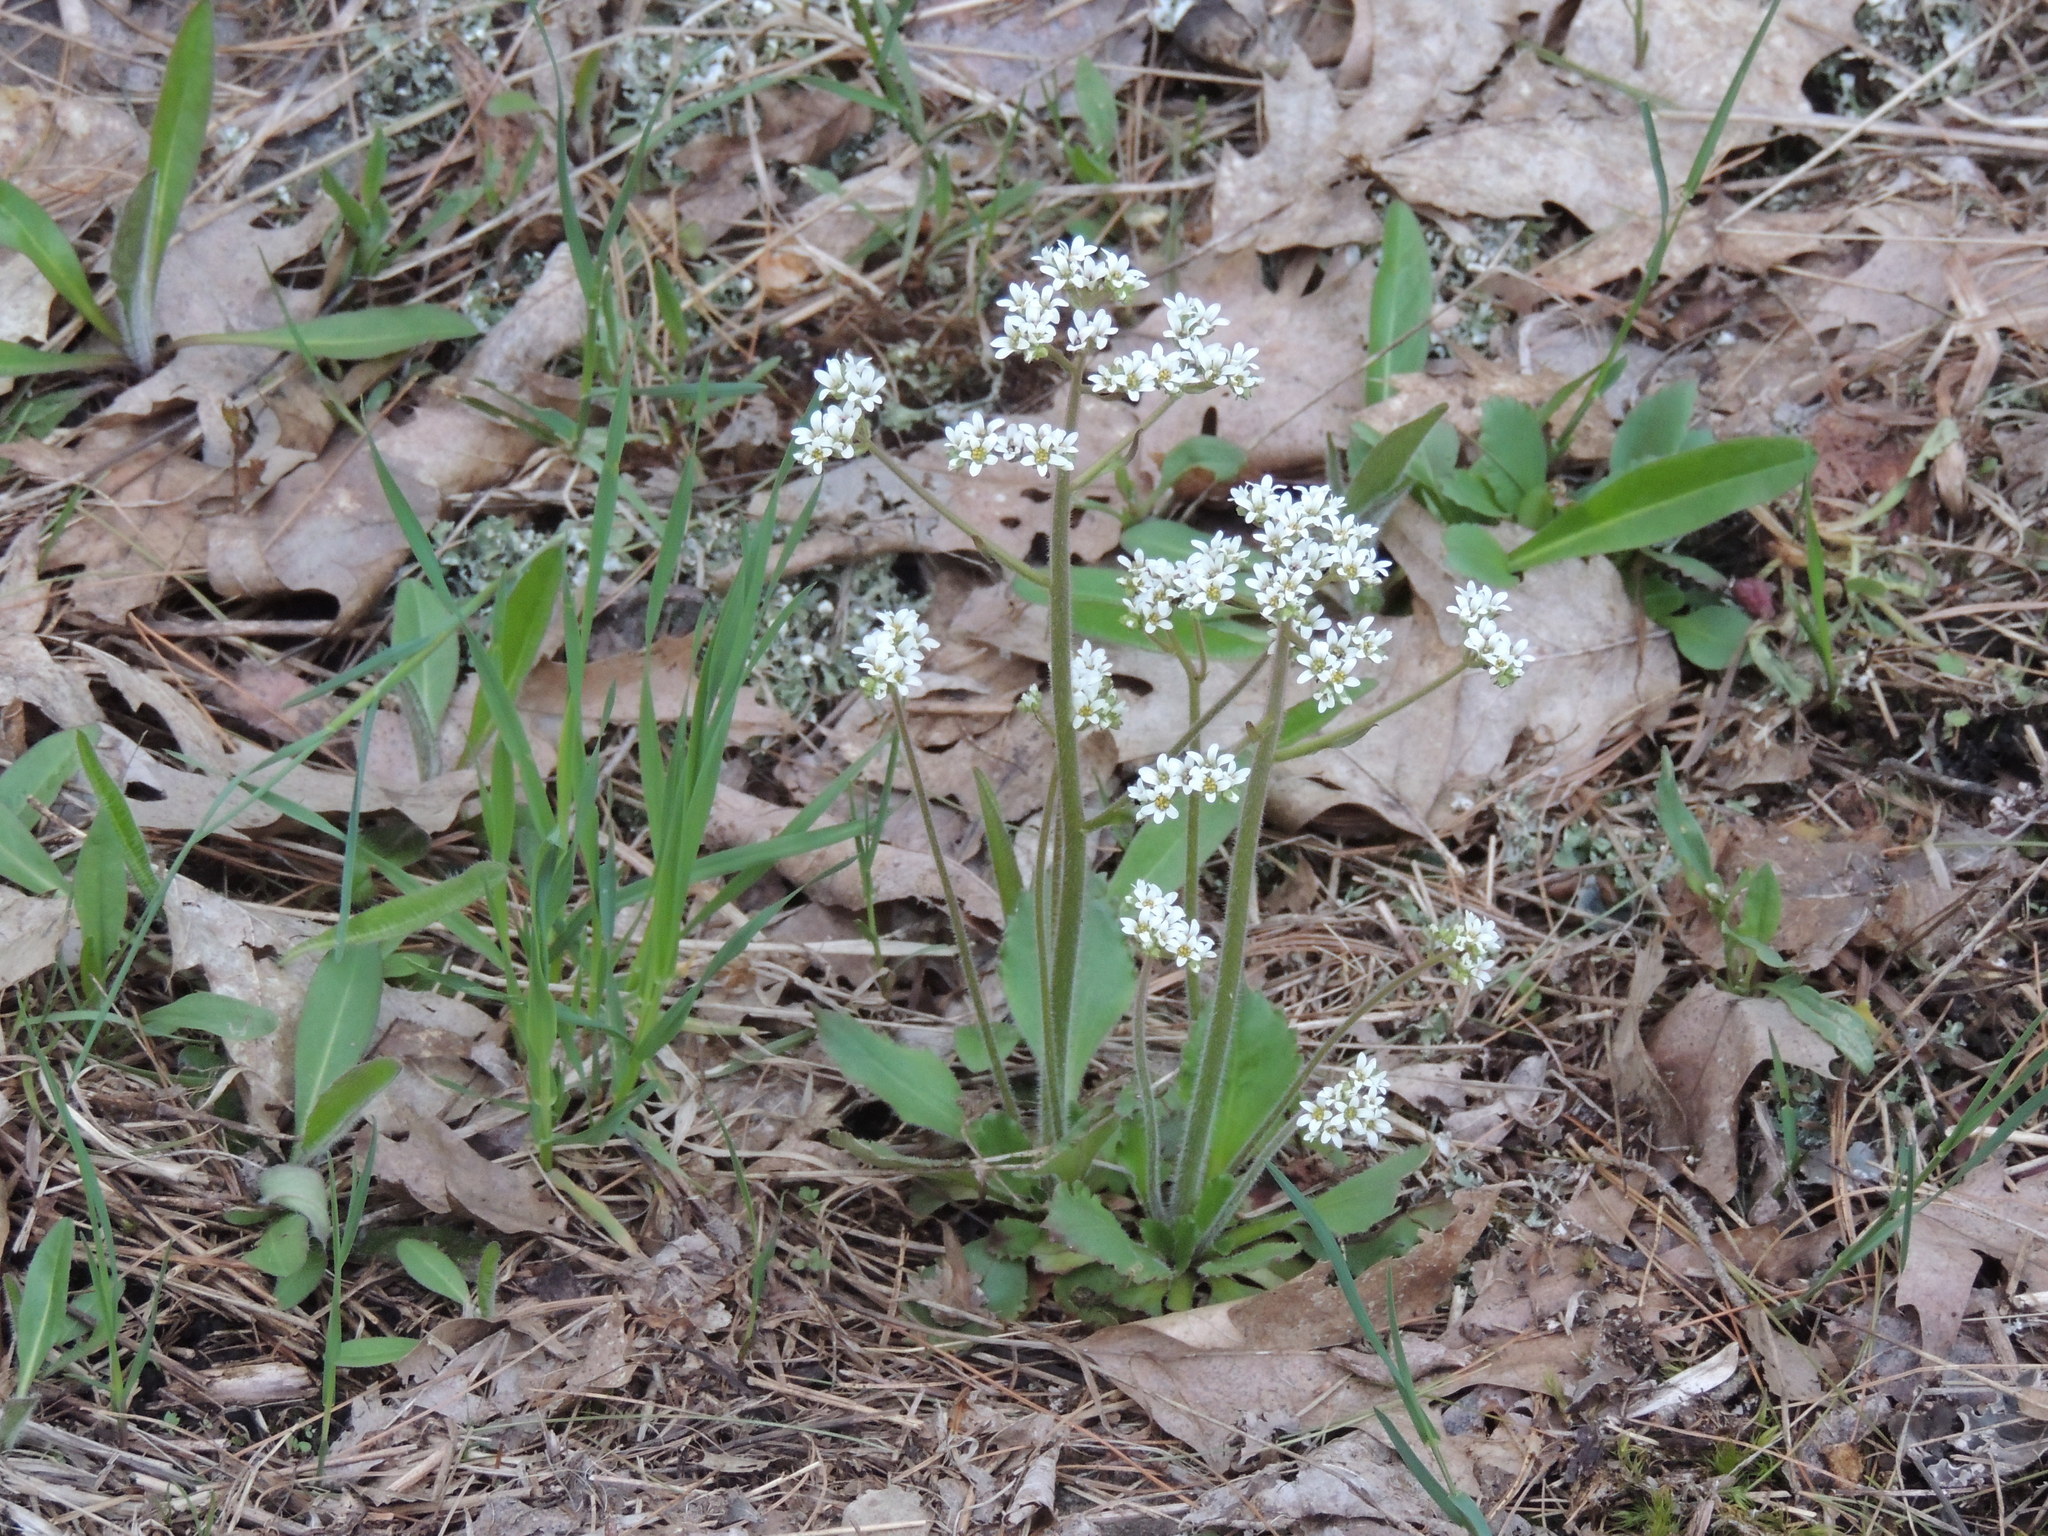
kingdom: Plantae
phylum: Tracheophyta
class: Magnoliopsida
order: Saxifragales
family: Saxifragaceae
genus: Micranthes
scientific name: Micranthes virginiensis
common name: Early saxifrage
